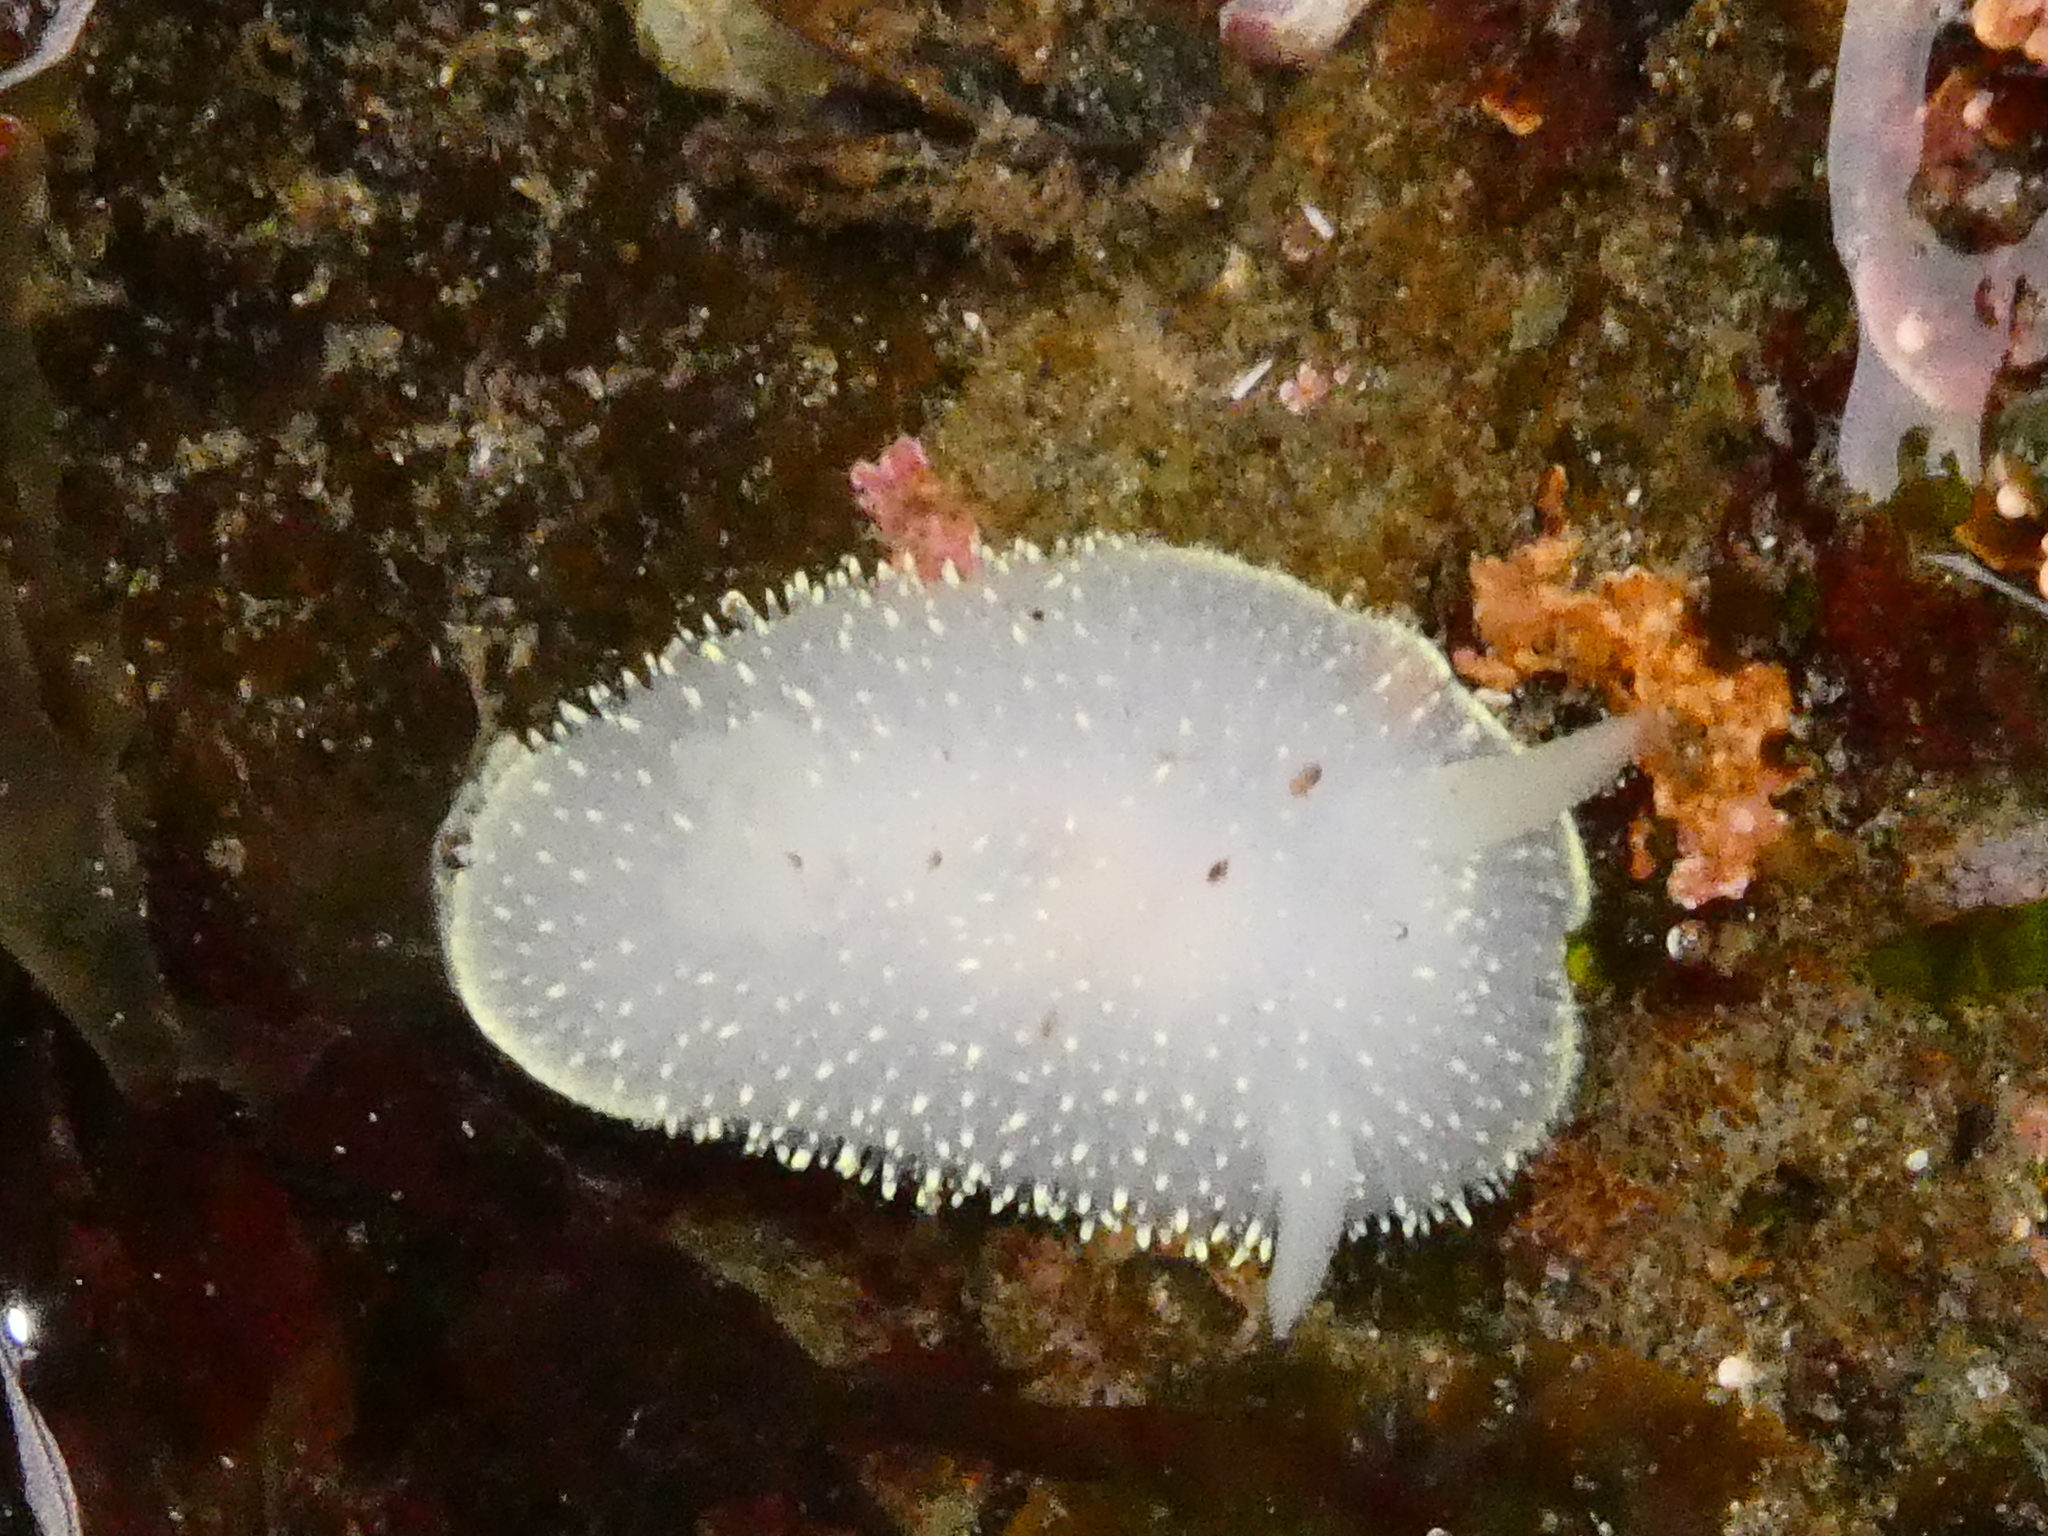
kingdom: Animalia
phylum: Mollusca
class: Gastropoda
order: Nudibranchia
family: Onchidorididae
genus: Acanthodoris
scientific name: Acanthodoris hudsoni
